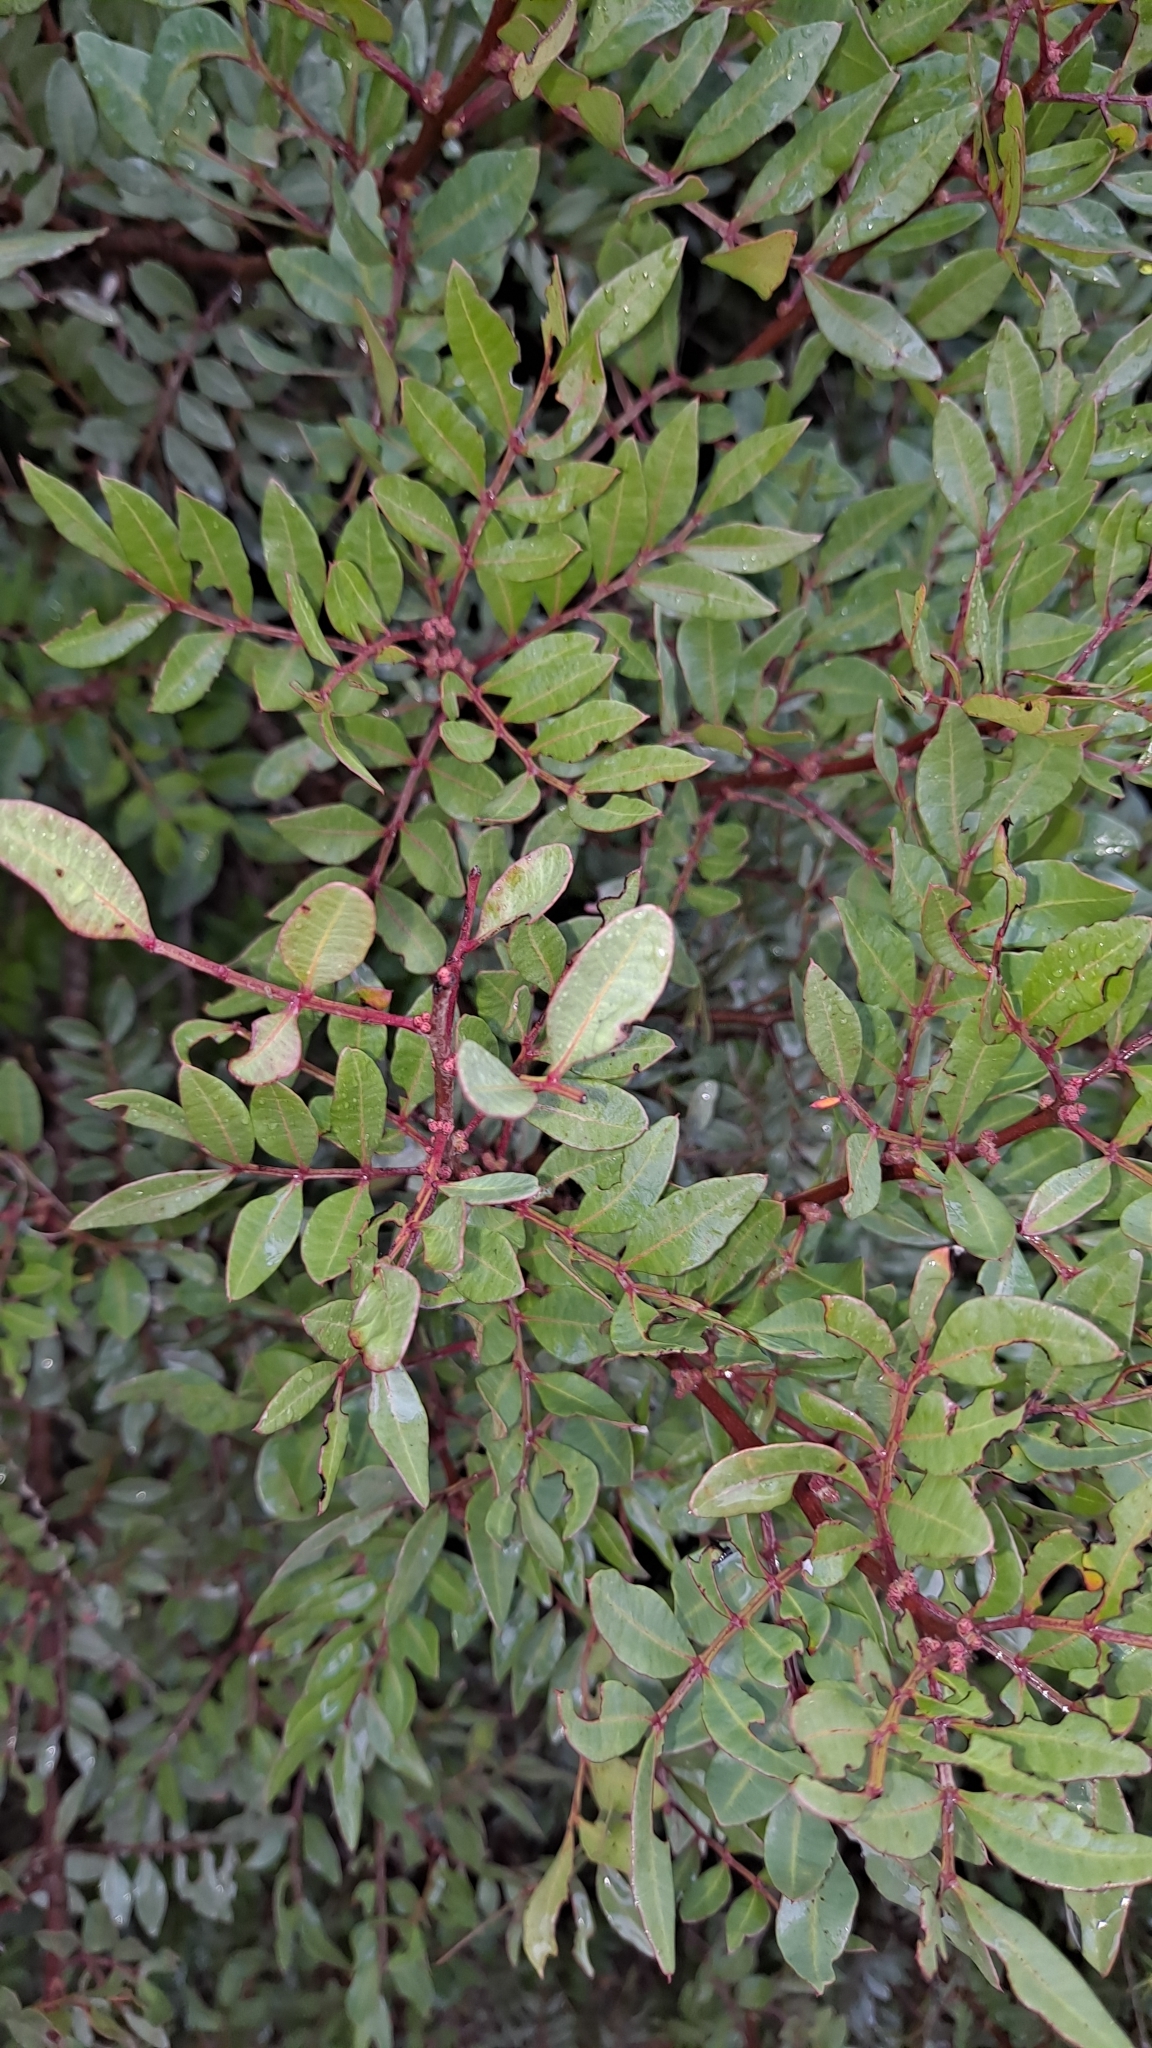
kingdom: Plantae
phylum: Tracheophyta
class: Magnoliopsida
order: Sapindales
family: Anacardiaceae
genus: Pistacia
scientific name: Pistacia lentiscus
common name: Lentisk
